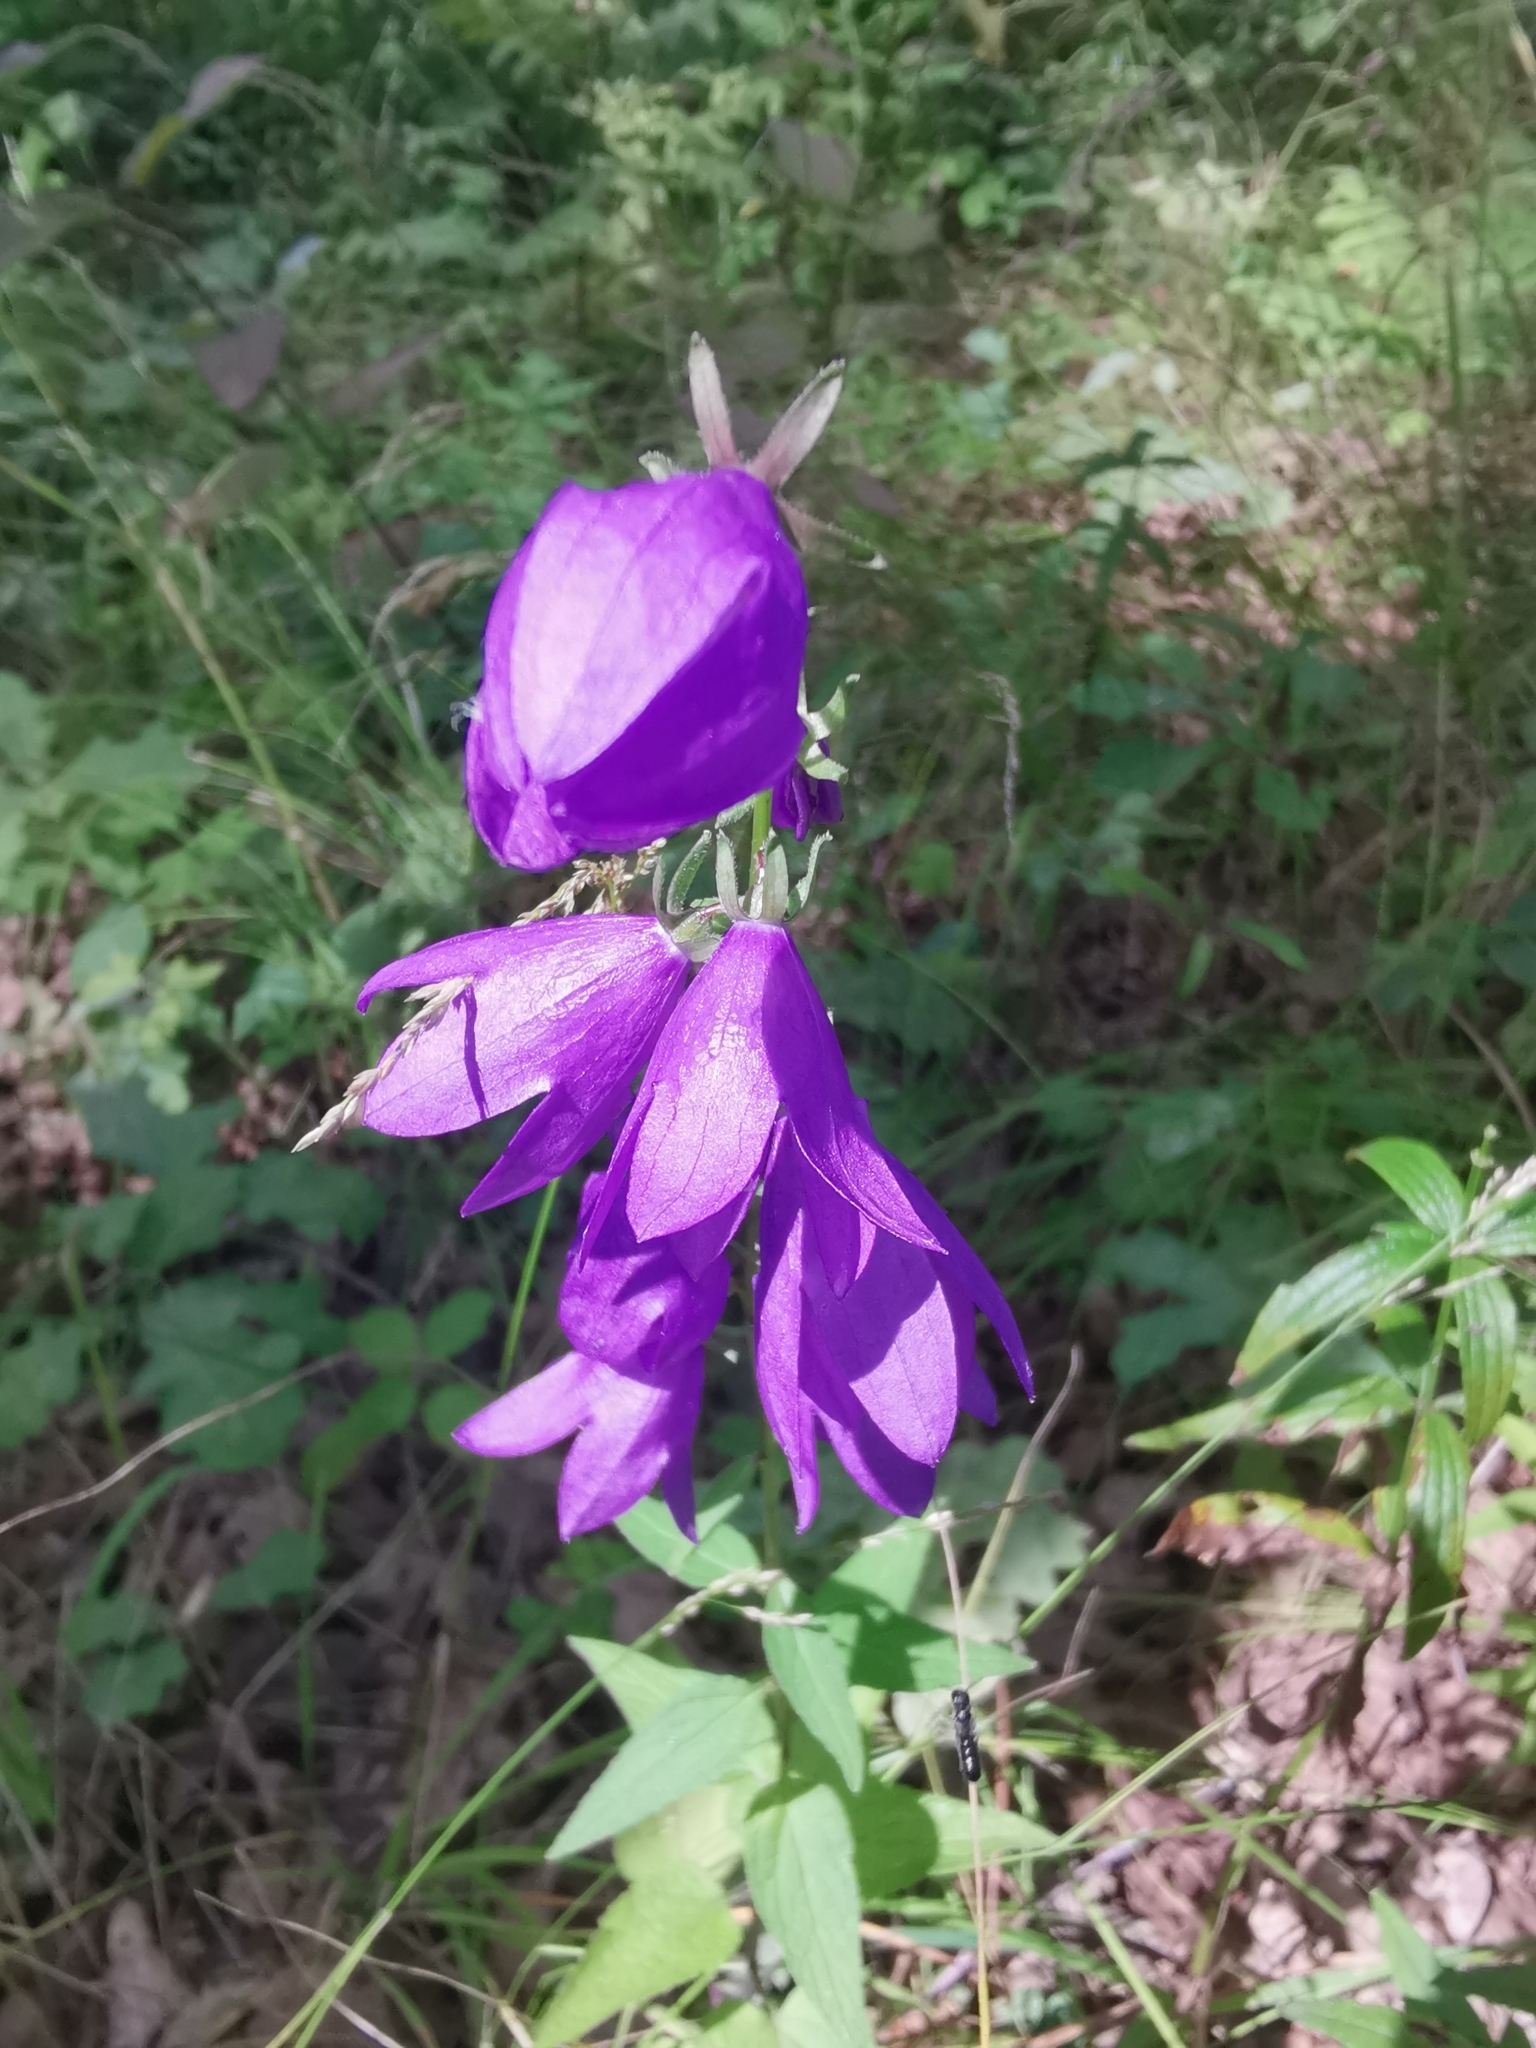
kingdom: Plantae
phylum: Tracheophyta
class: Magnoliopsida
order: Asterales
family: Campanulaceae
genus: Campanula
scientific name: Campanula rapunculoides
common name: Creeping bellflower
